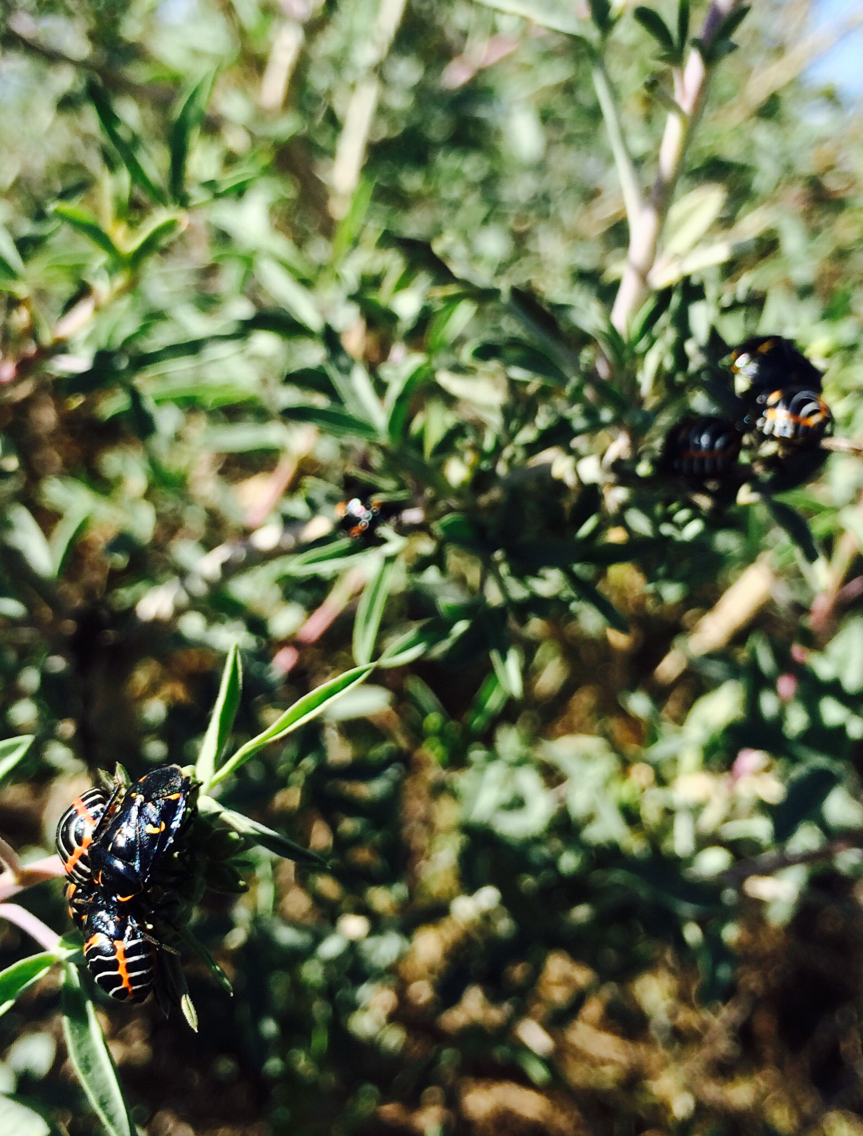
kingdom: Animalia
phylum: Arthropoda
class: Insecta
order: Hemiptera
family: Pentatomidae
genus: Murgantia
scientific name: Murgantia histrionica
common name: Harlequin bug
